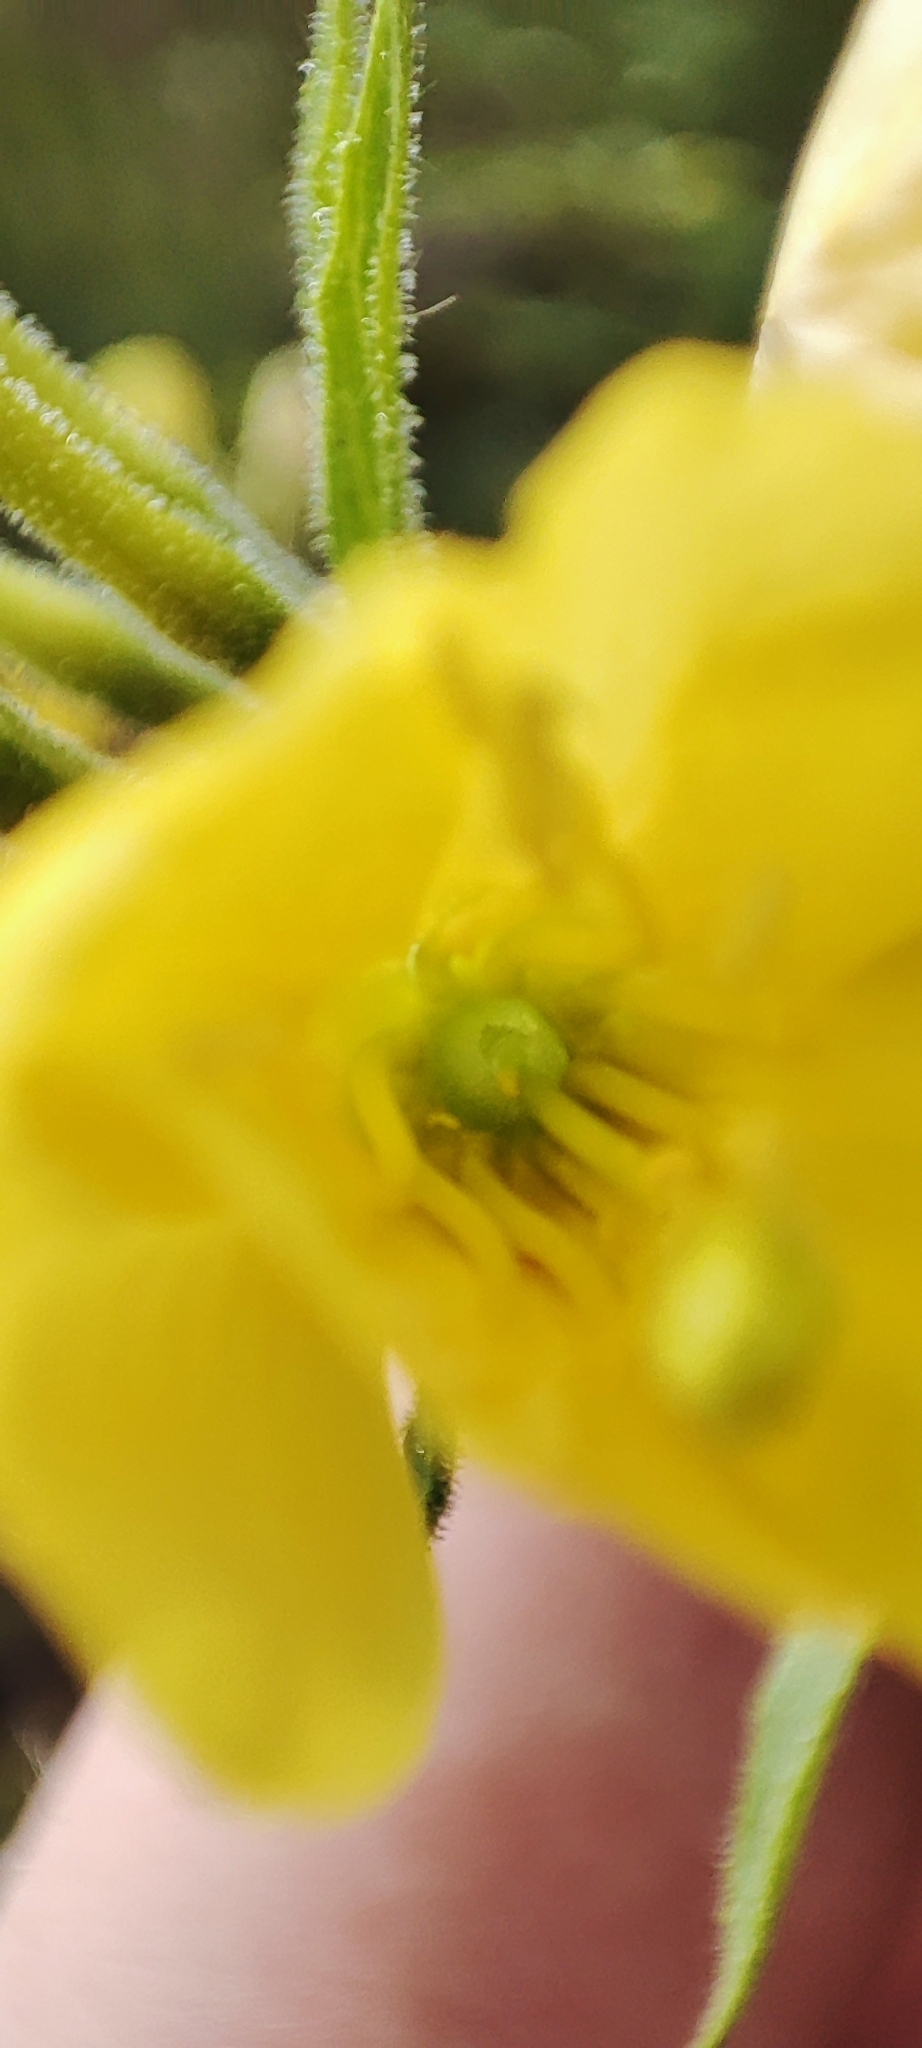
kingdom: Plantae
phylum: Tracheophyta
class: Magnoliopsida
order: Myrtales
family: Onagraceae
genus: Oenothera
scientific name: Oenothera rubricaulis
